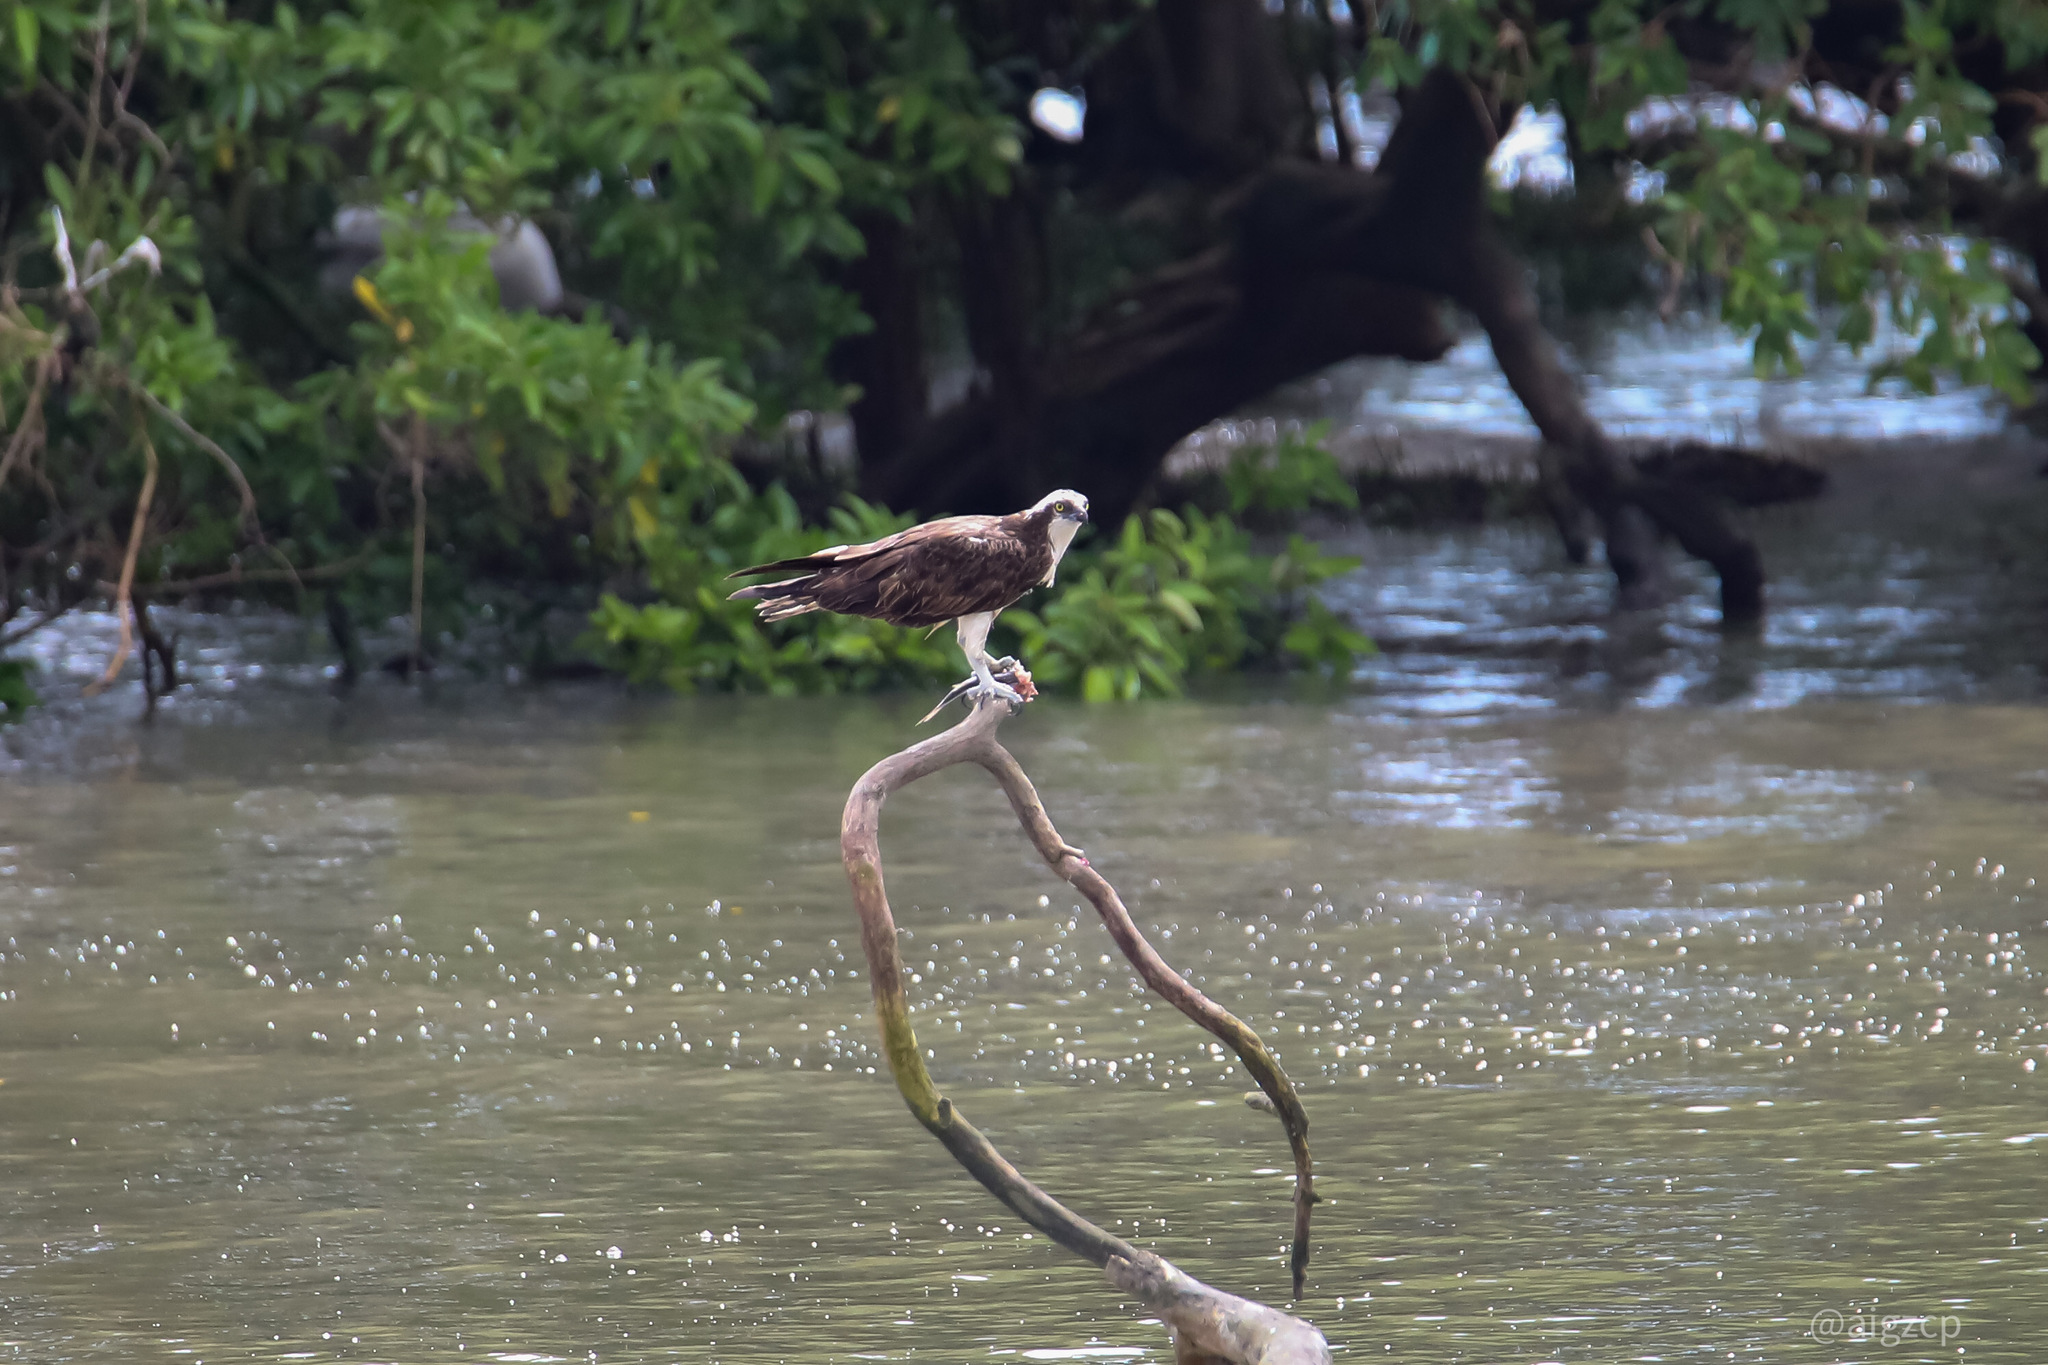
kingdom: Animalia
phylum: Chordata
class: Aves
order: Accipitriformes
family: Pandionidae
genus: Pandion
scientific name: Pandion haliaetus
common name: Osprey
